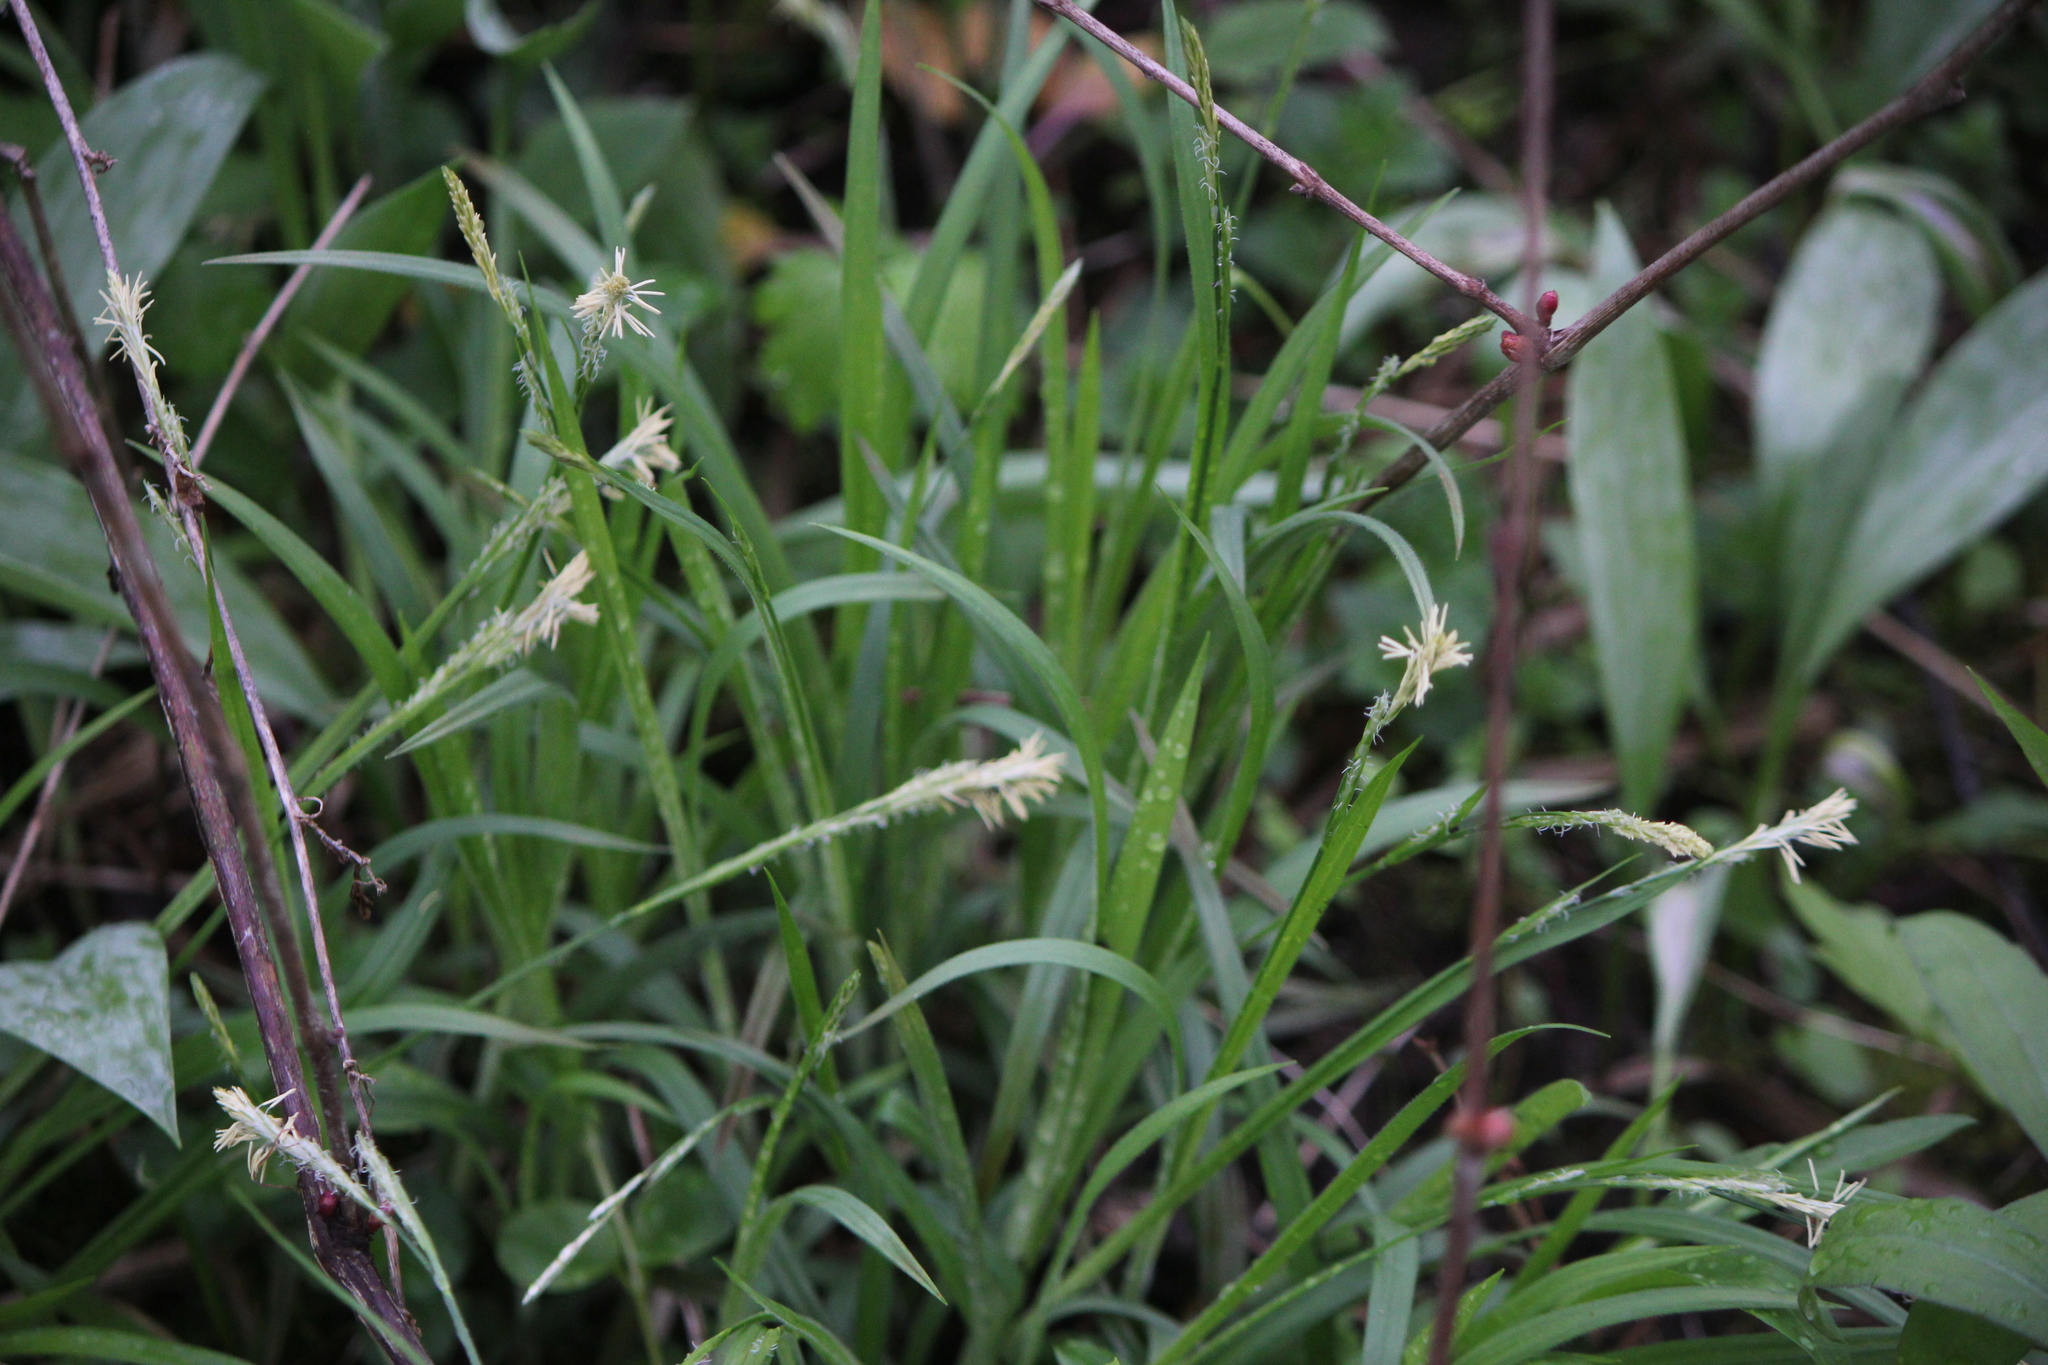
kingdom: Plantae
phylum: Tracheophyta
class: Liliopsida
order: Poales
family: Cyperaceae
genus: Carex
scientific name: Carex hirtifolia
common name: Hairy sedge
